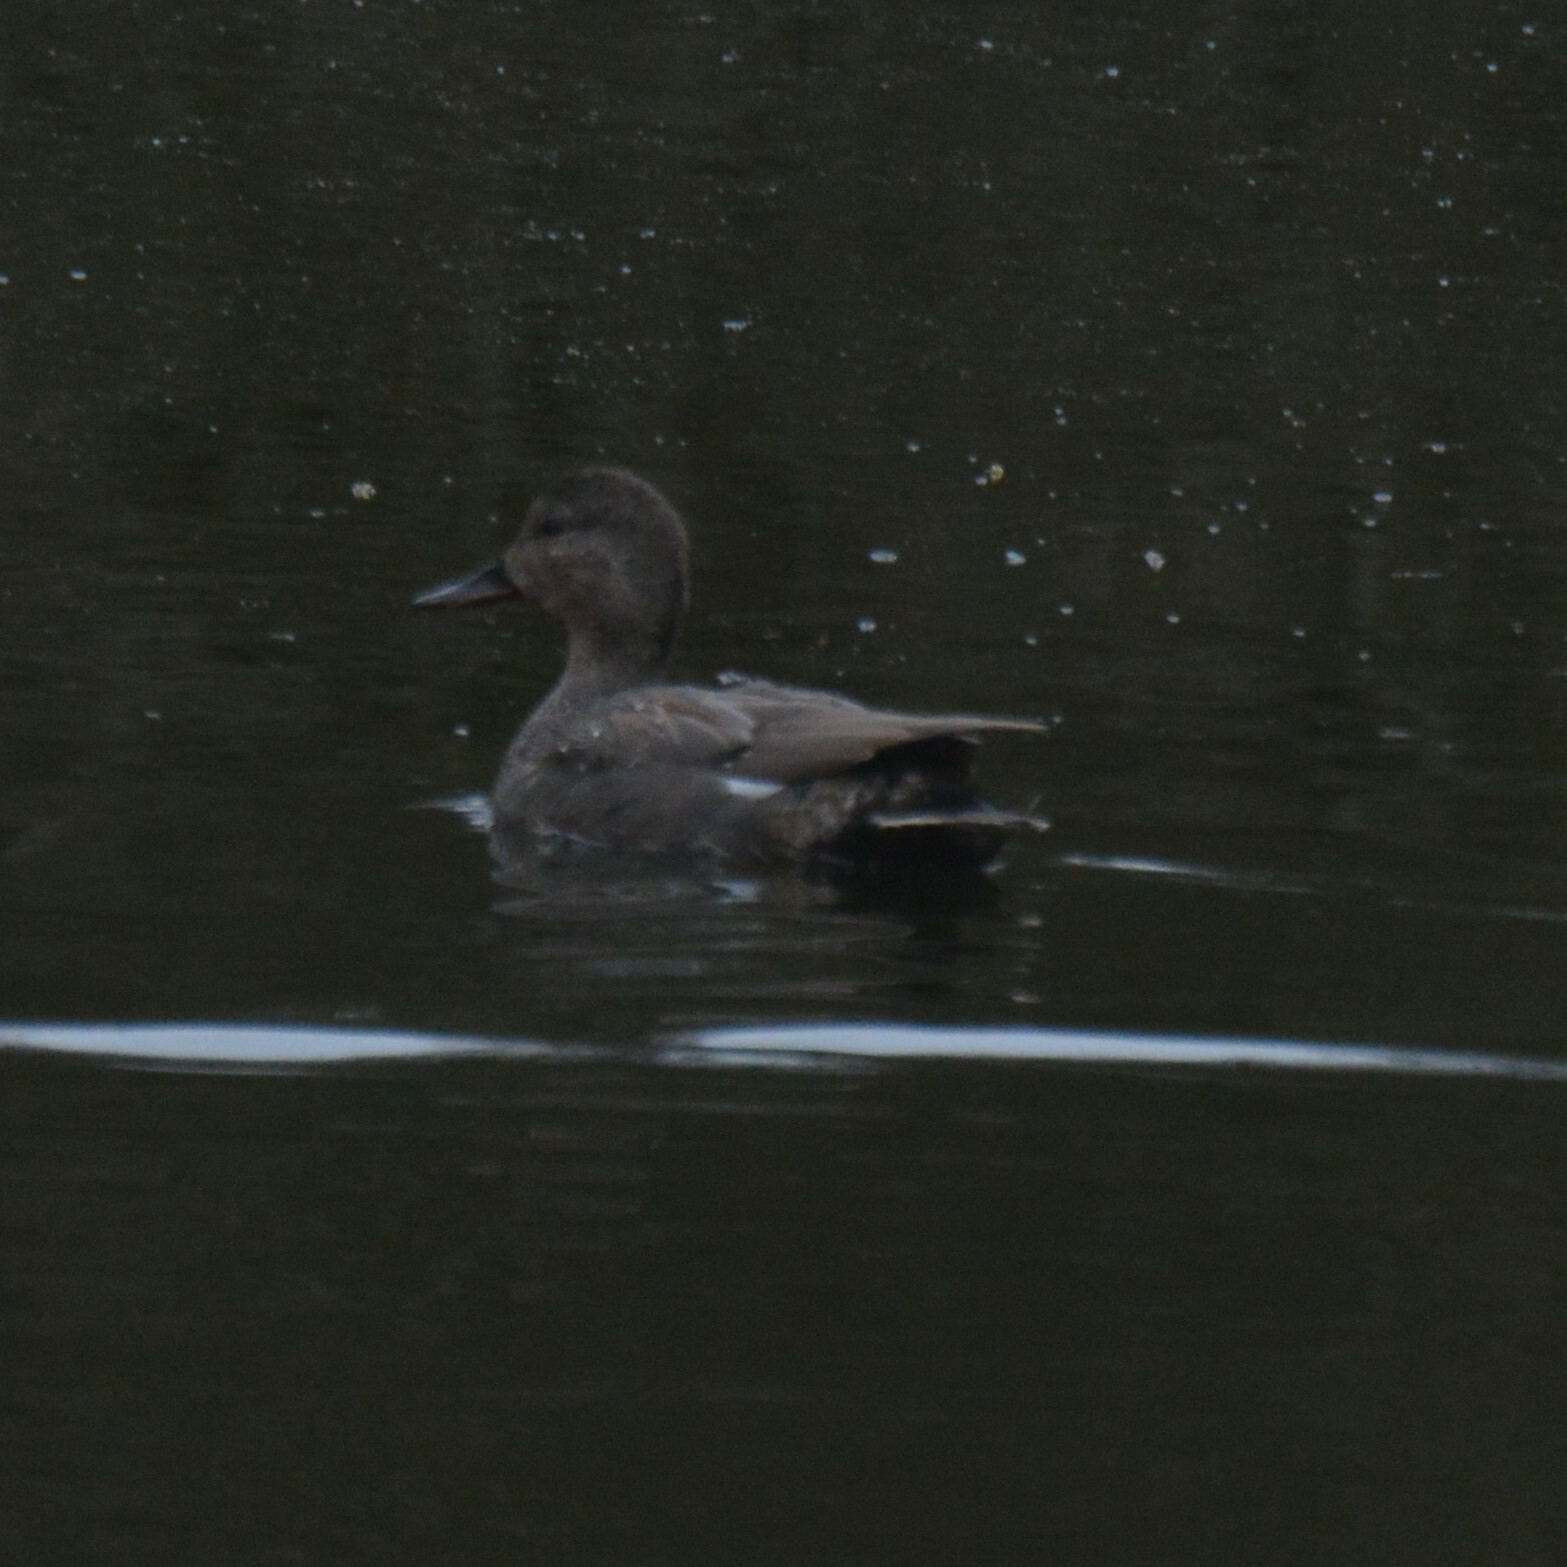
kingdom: Animalia
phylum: Chordata
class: Aves
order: Anseriformes
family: Anatidae
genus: Mareca
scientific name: Mareca strepera
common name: Gadwall
